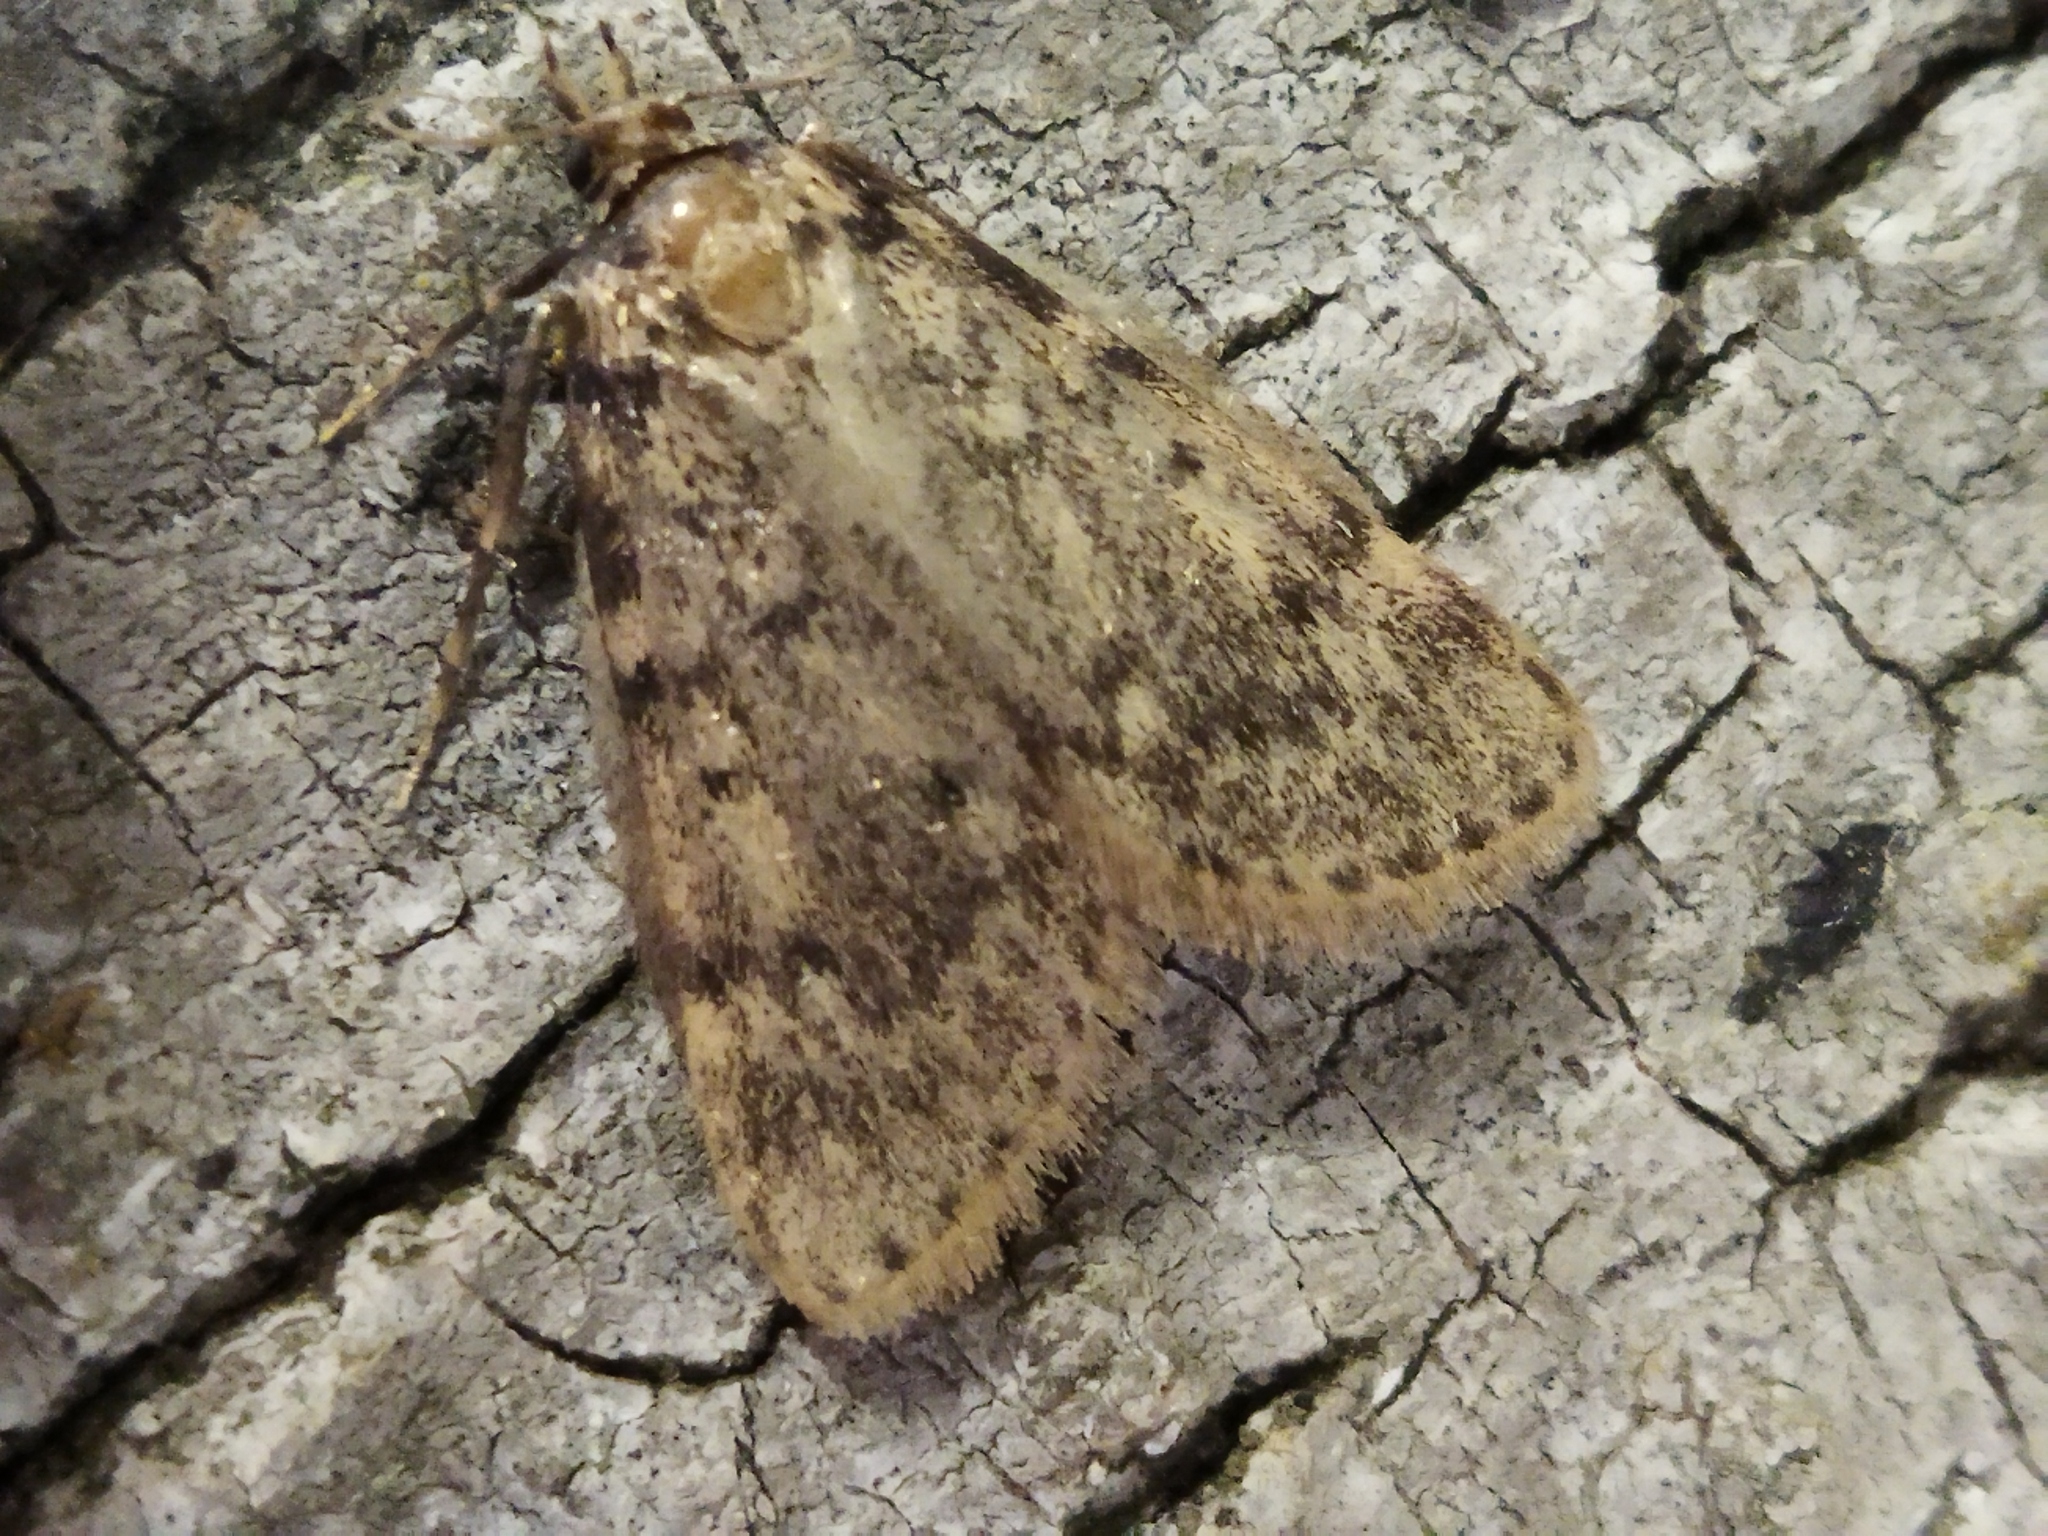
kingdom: Animalia
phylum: Arthropoda
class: Insecta
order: Lepidoptera
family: Pyralidae
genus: Aglossa
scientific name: Aglossa pinguinalis
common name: Large tabby
